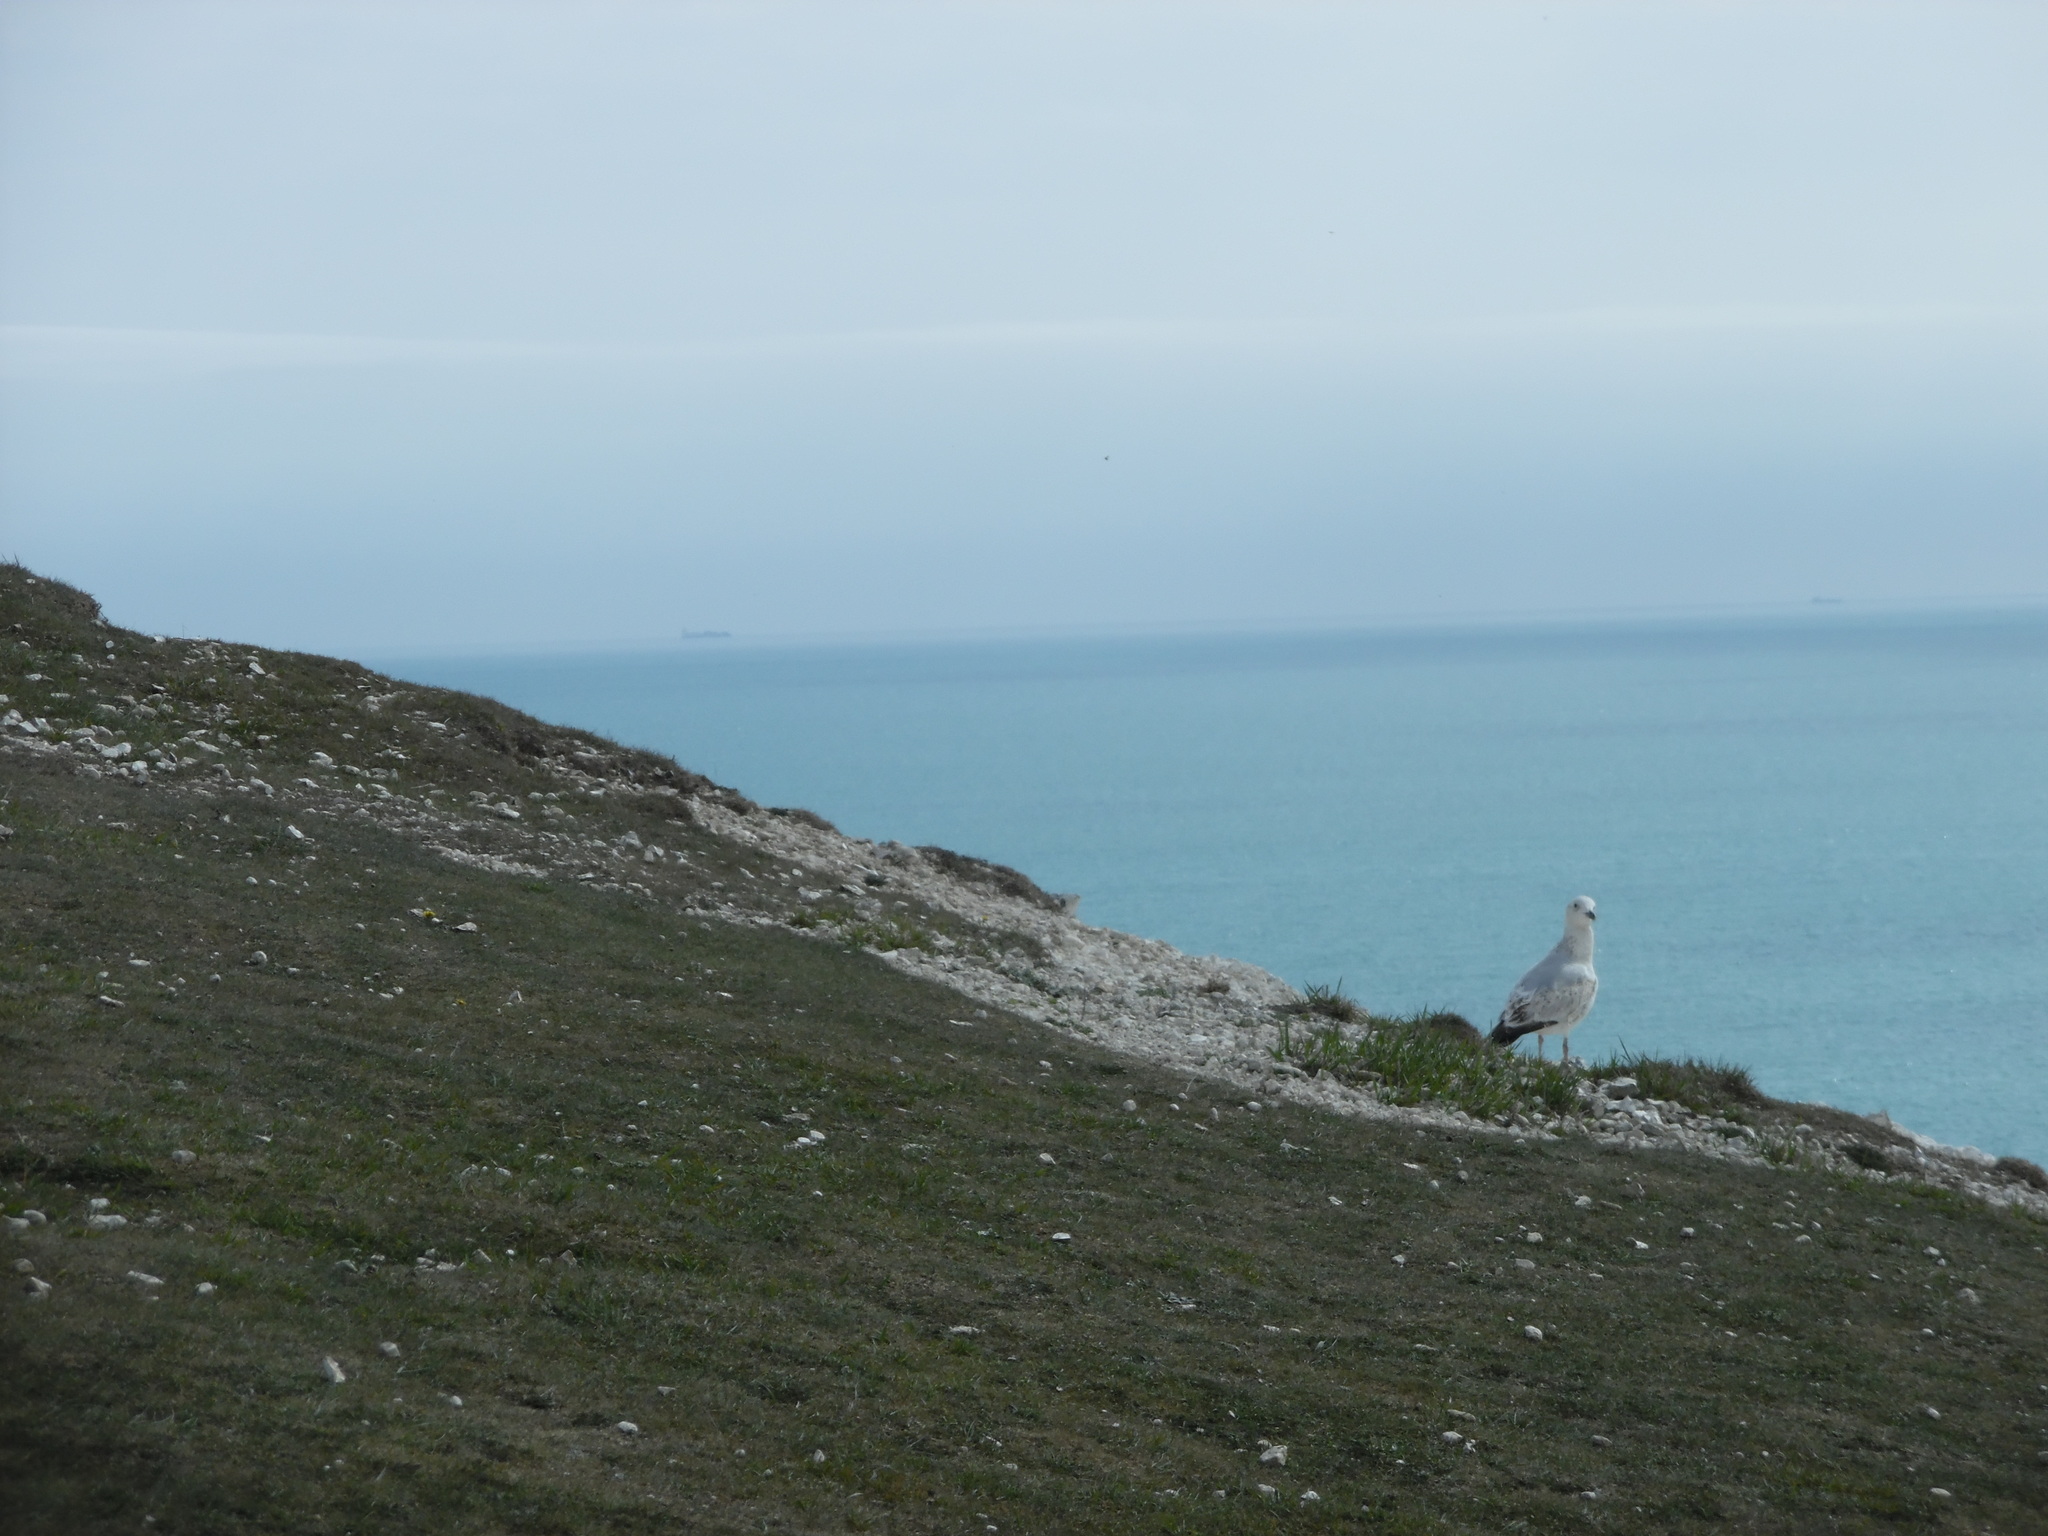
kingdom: Animalia
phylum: Chordata
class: Aves
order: Charadriiformes
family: Laridae
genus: Larus
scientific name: Larus argentatus
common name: Herring gull
